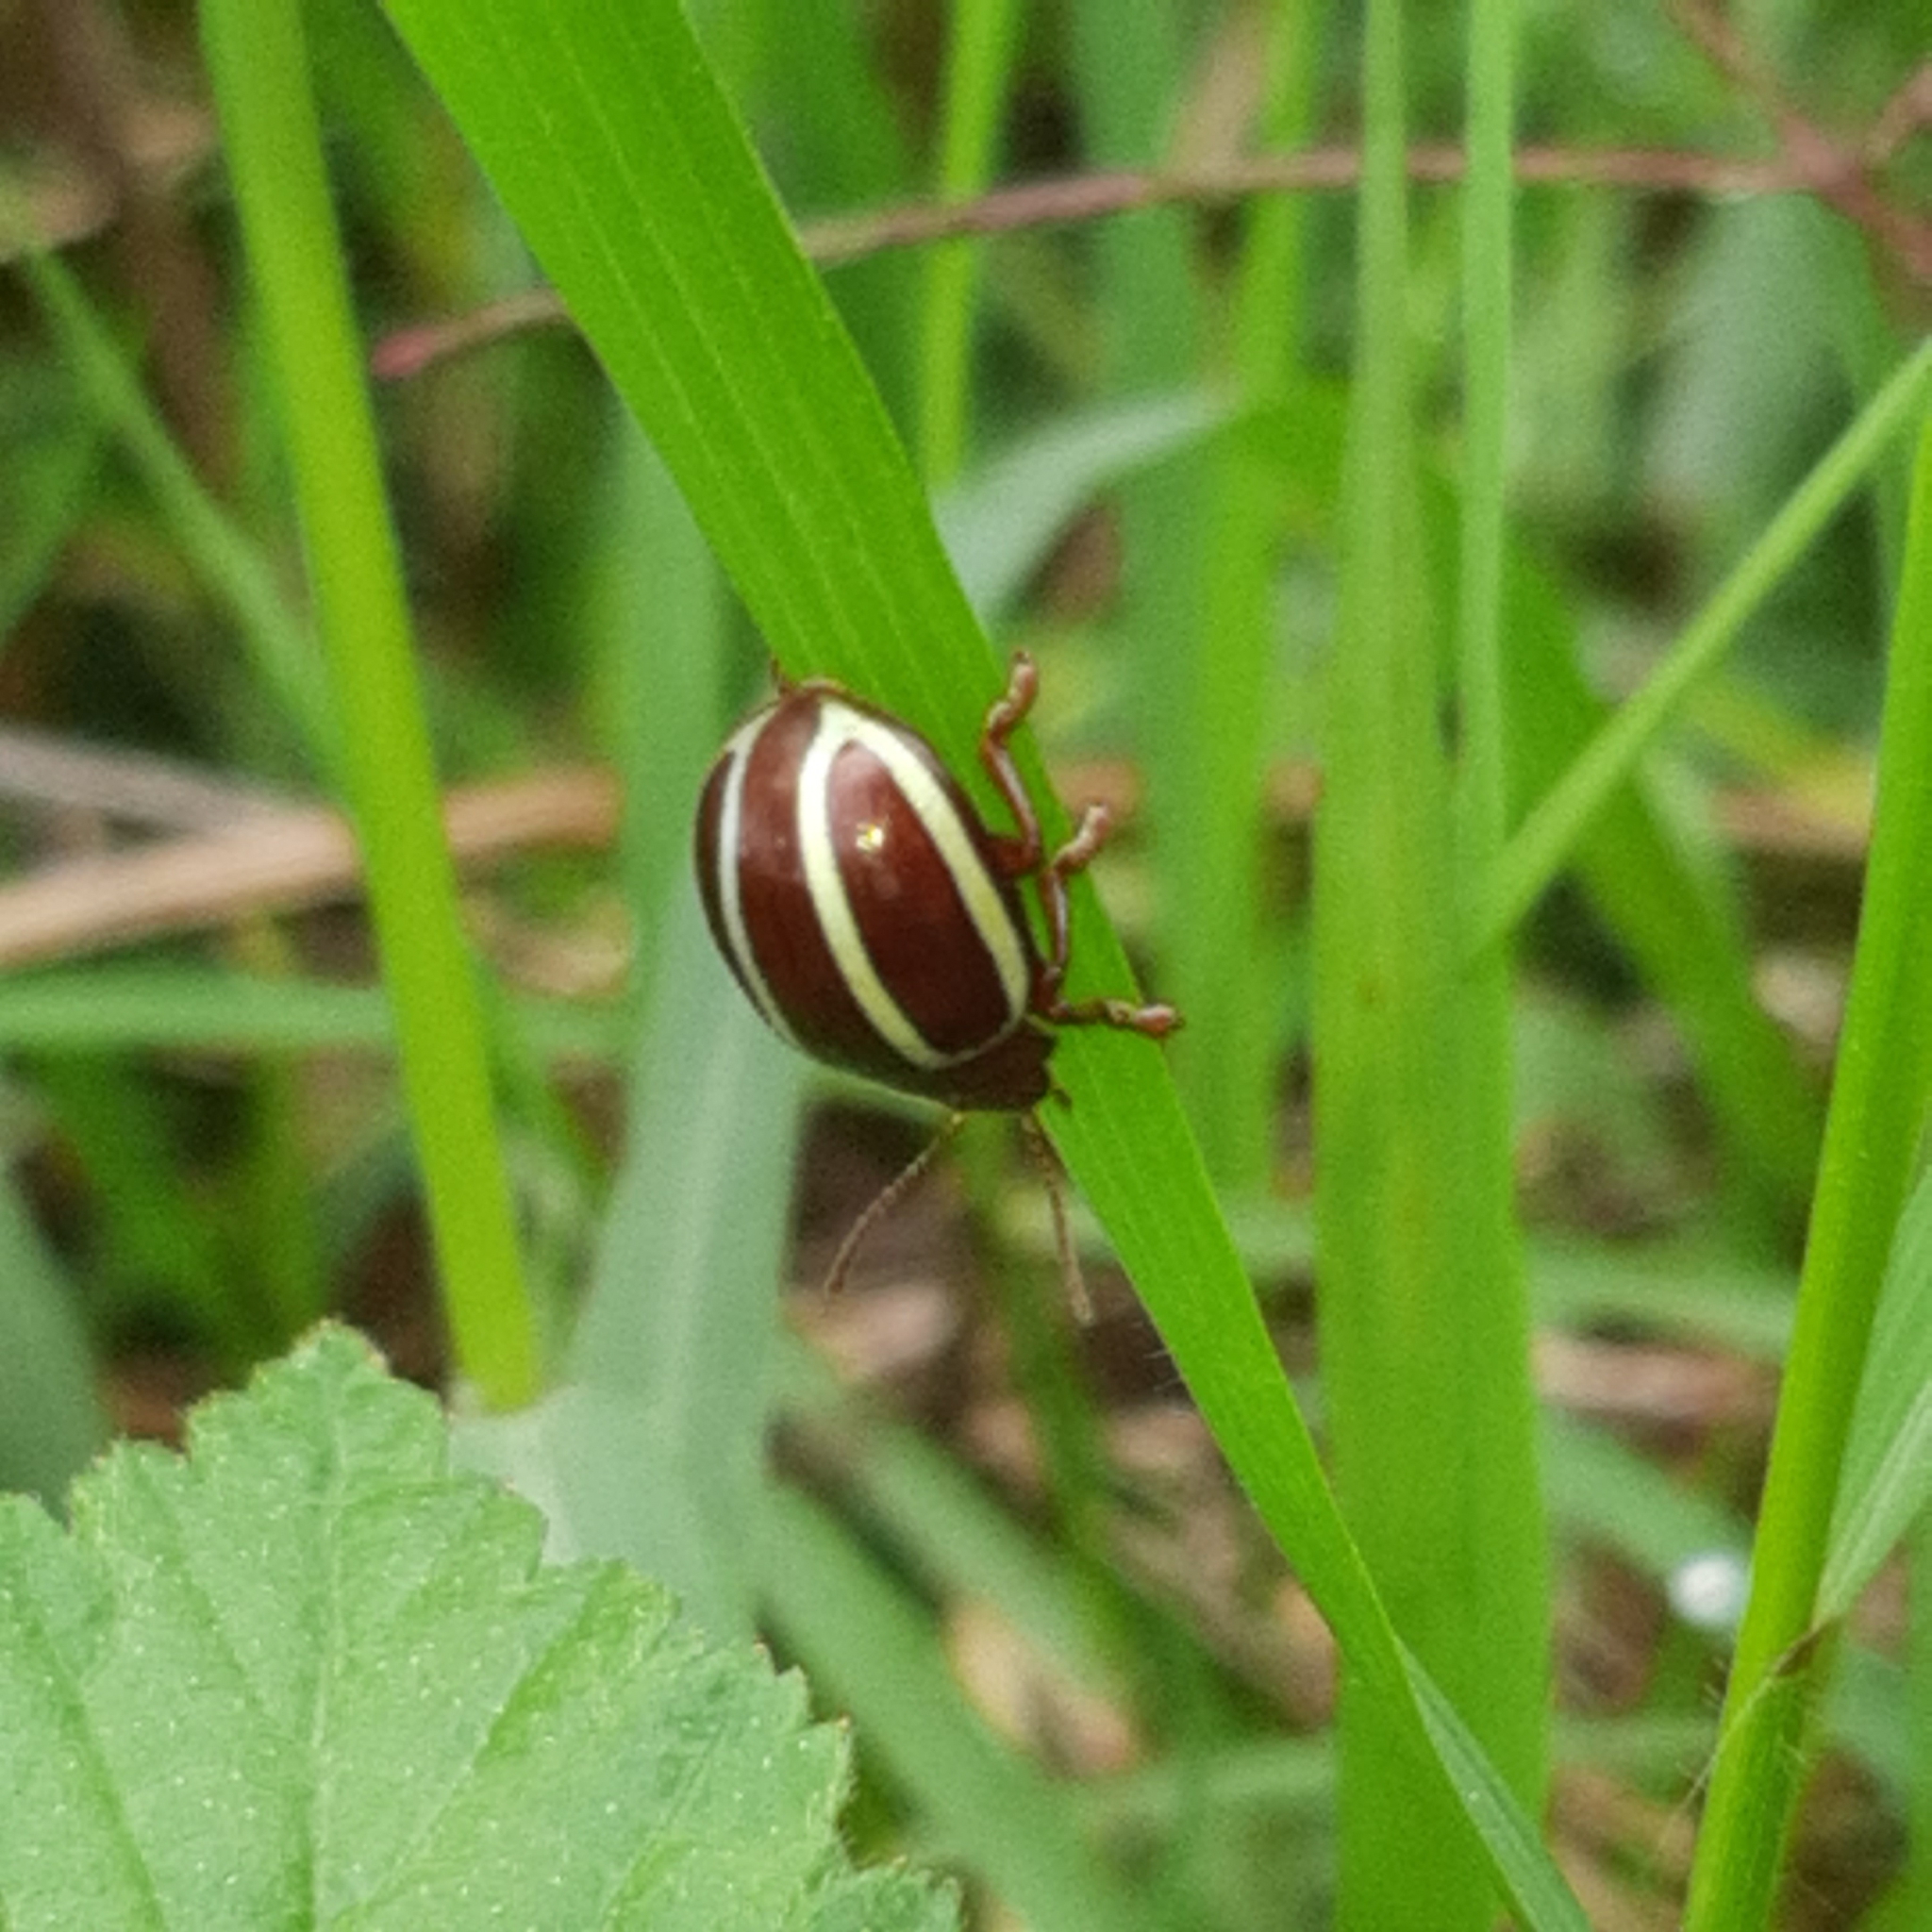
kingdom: Animalia
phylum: Arthropoda
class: Insecta
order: Coleoptera
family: Chrysomelidae
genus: Desmogramma
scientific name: Desmogramma
